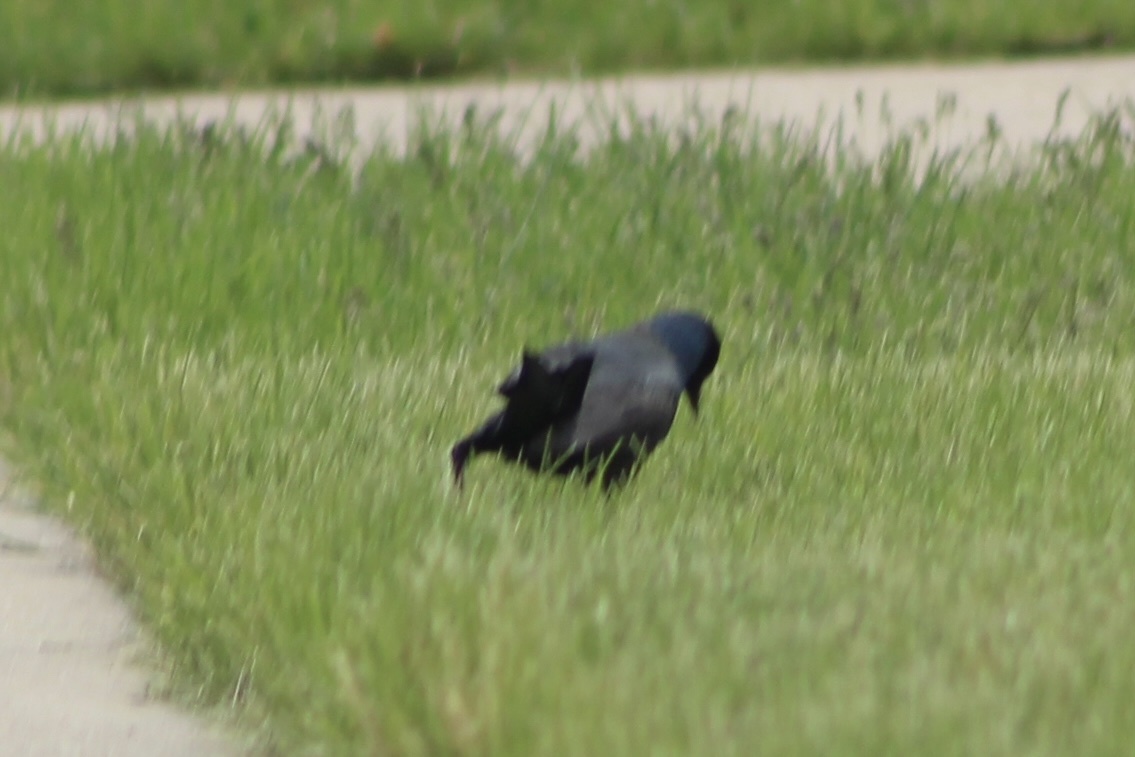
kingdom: Animalia
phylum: Chordata
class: Aves
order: Passeriformes
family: Icteridae
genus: Quiscalus
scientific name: Quiscalus quiscula
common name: Common grackle
